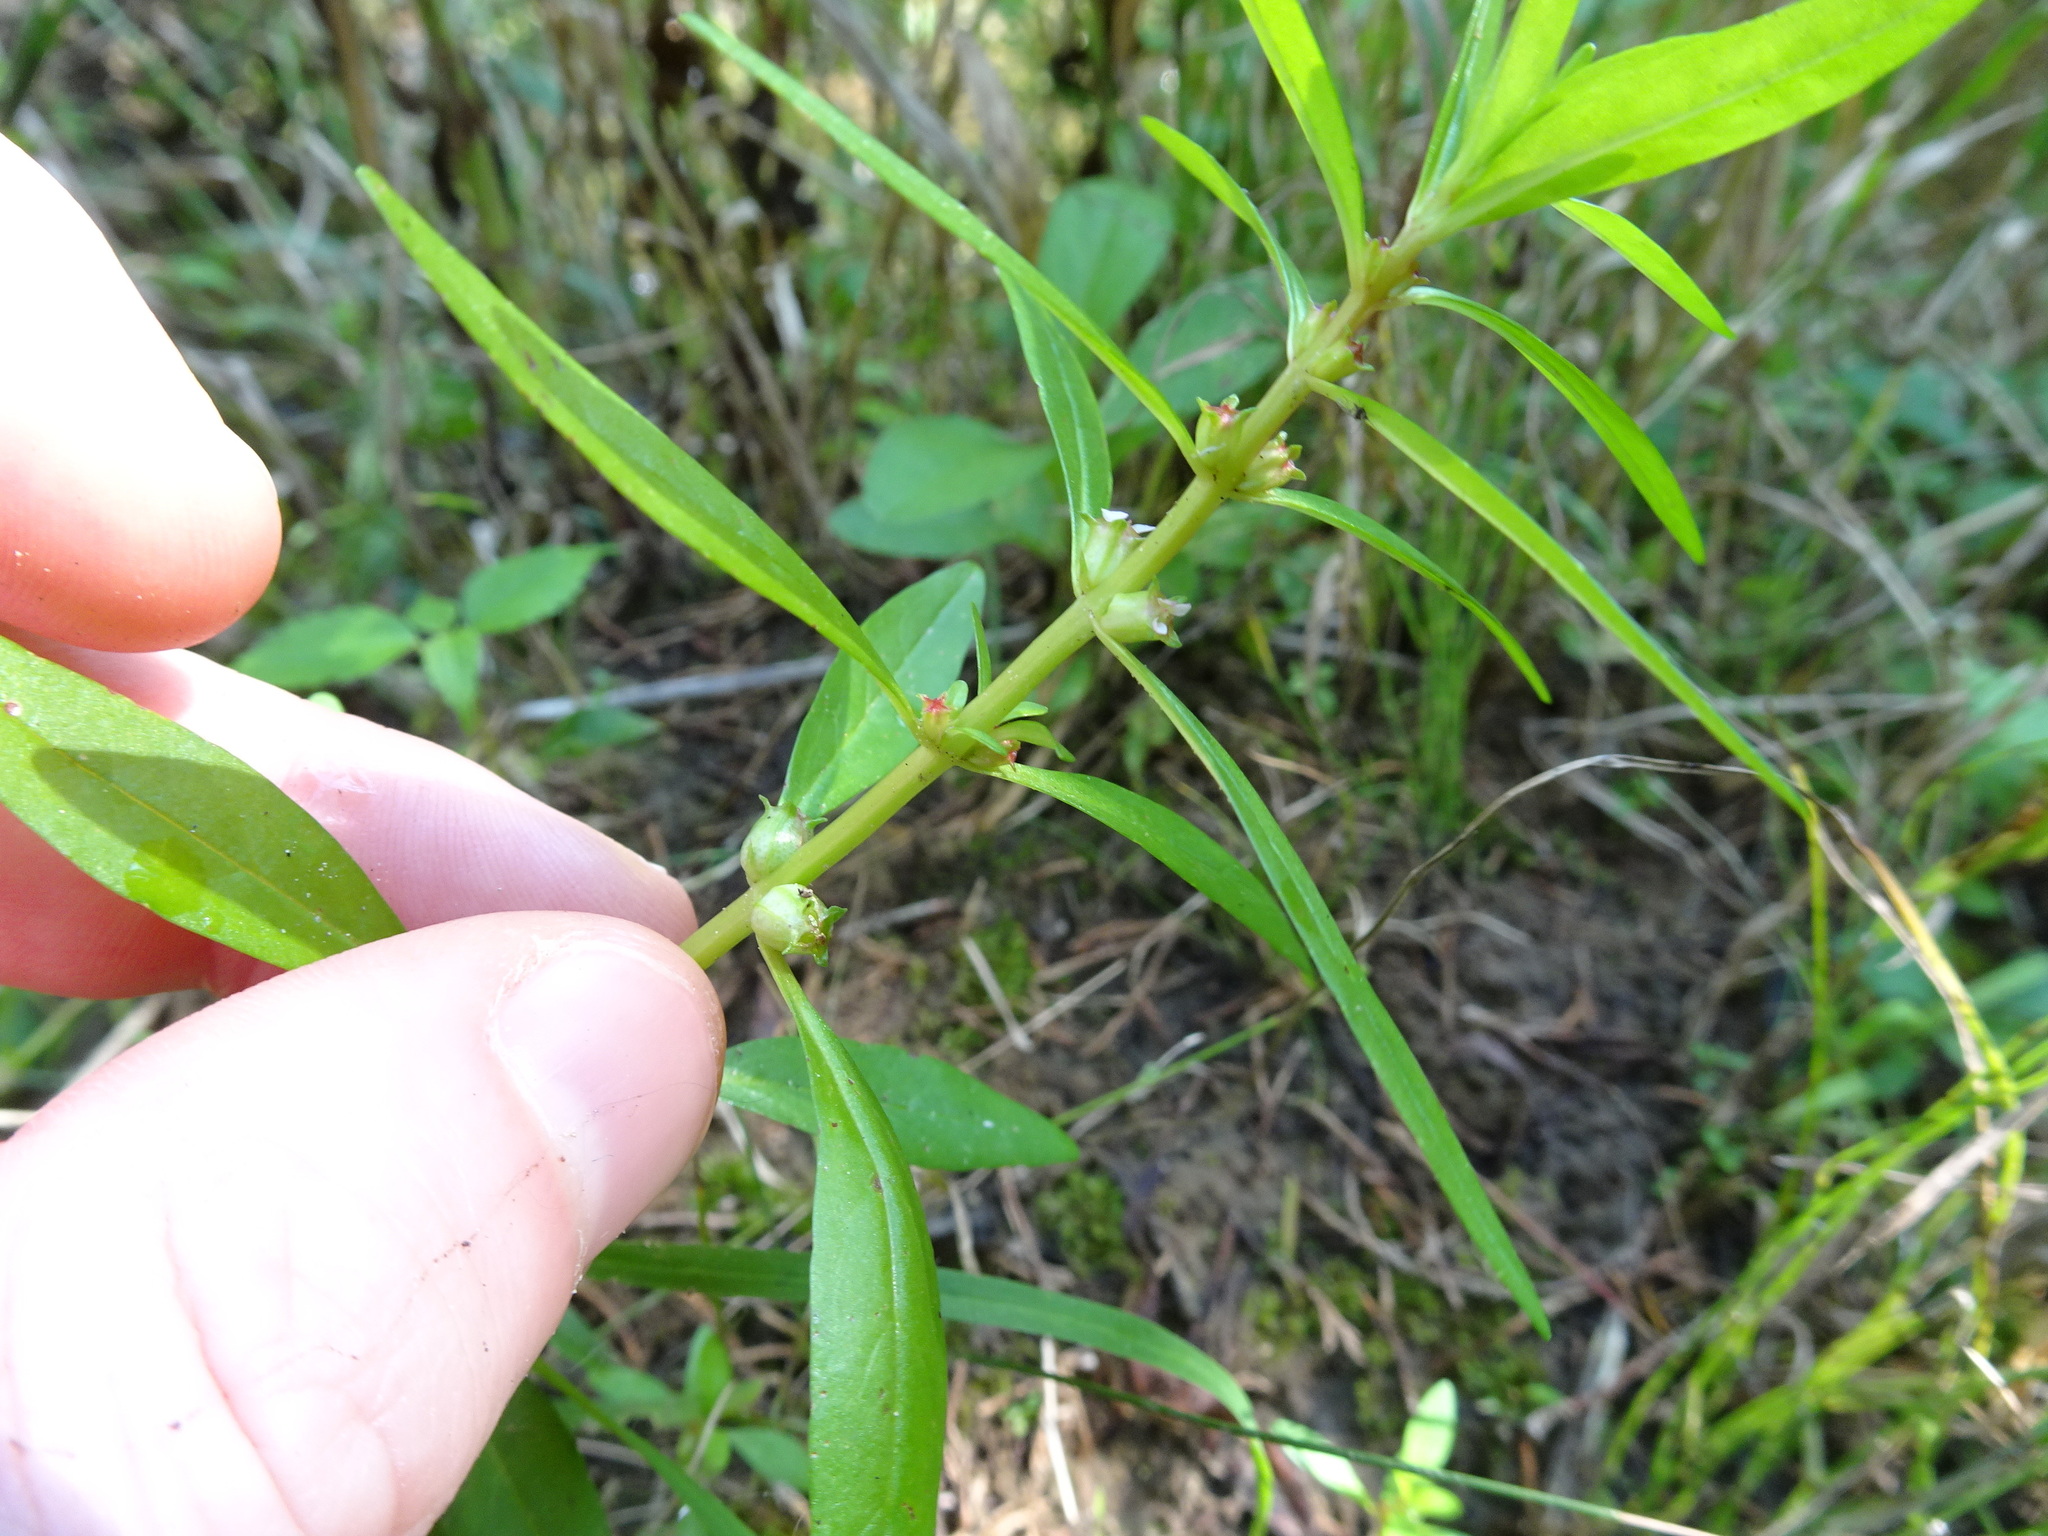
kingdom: Plantae
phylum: Tracheophyta
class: Magnoliopsida
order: Myrtales
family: Lythraceae
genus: Rotala
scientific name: Rotala ramosior
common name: Lowland rotala
